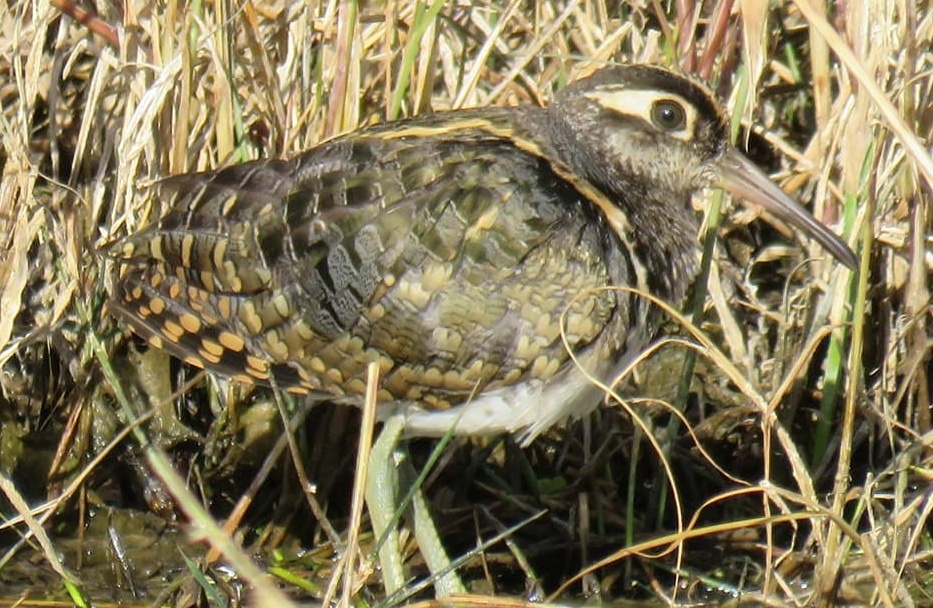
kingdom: Animalia
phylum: Chordata
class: Aves
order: Charadriiformes
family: Rostratulidae
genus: Rostratula
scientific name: Rostratula benghalensis
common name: Greater painted-snipe
